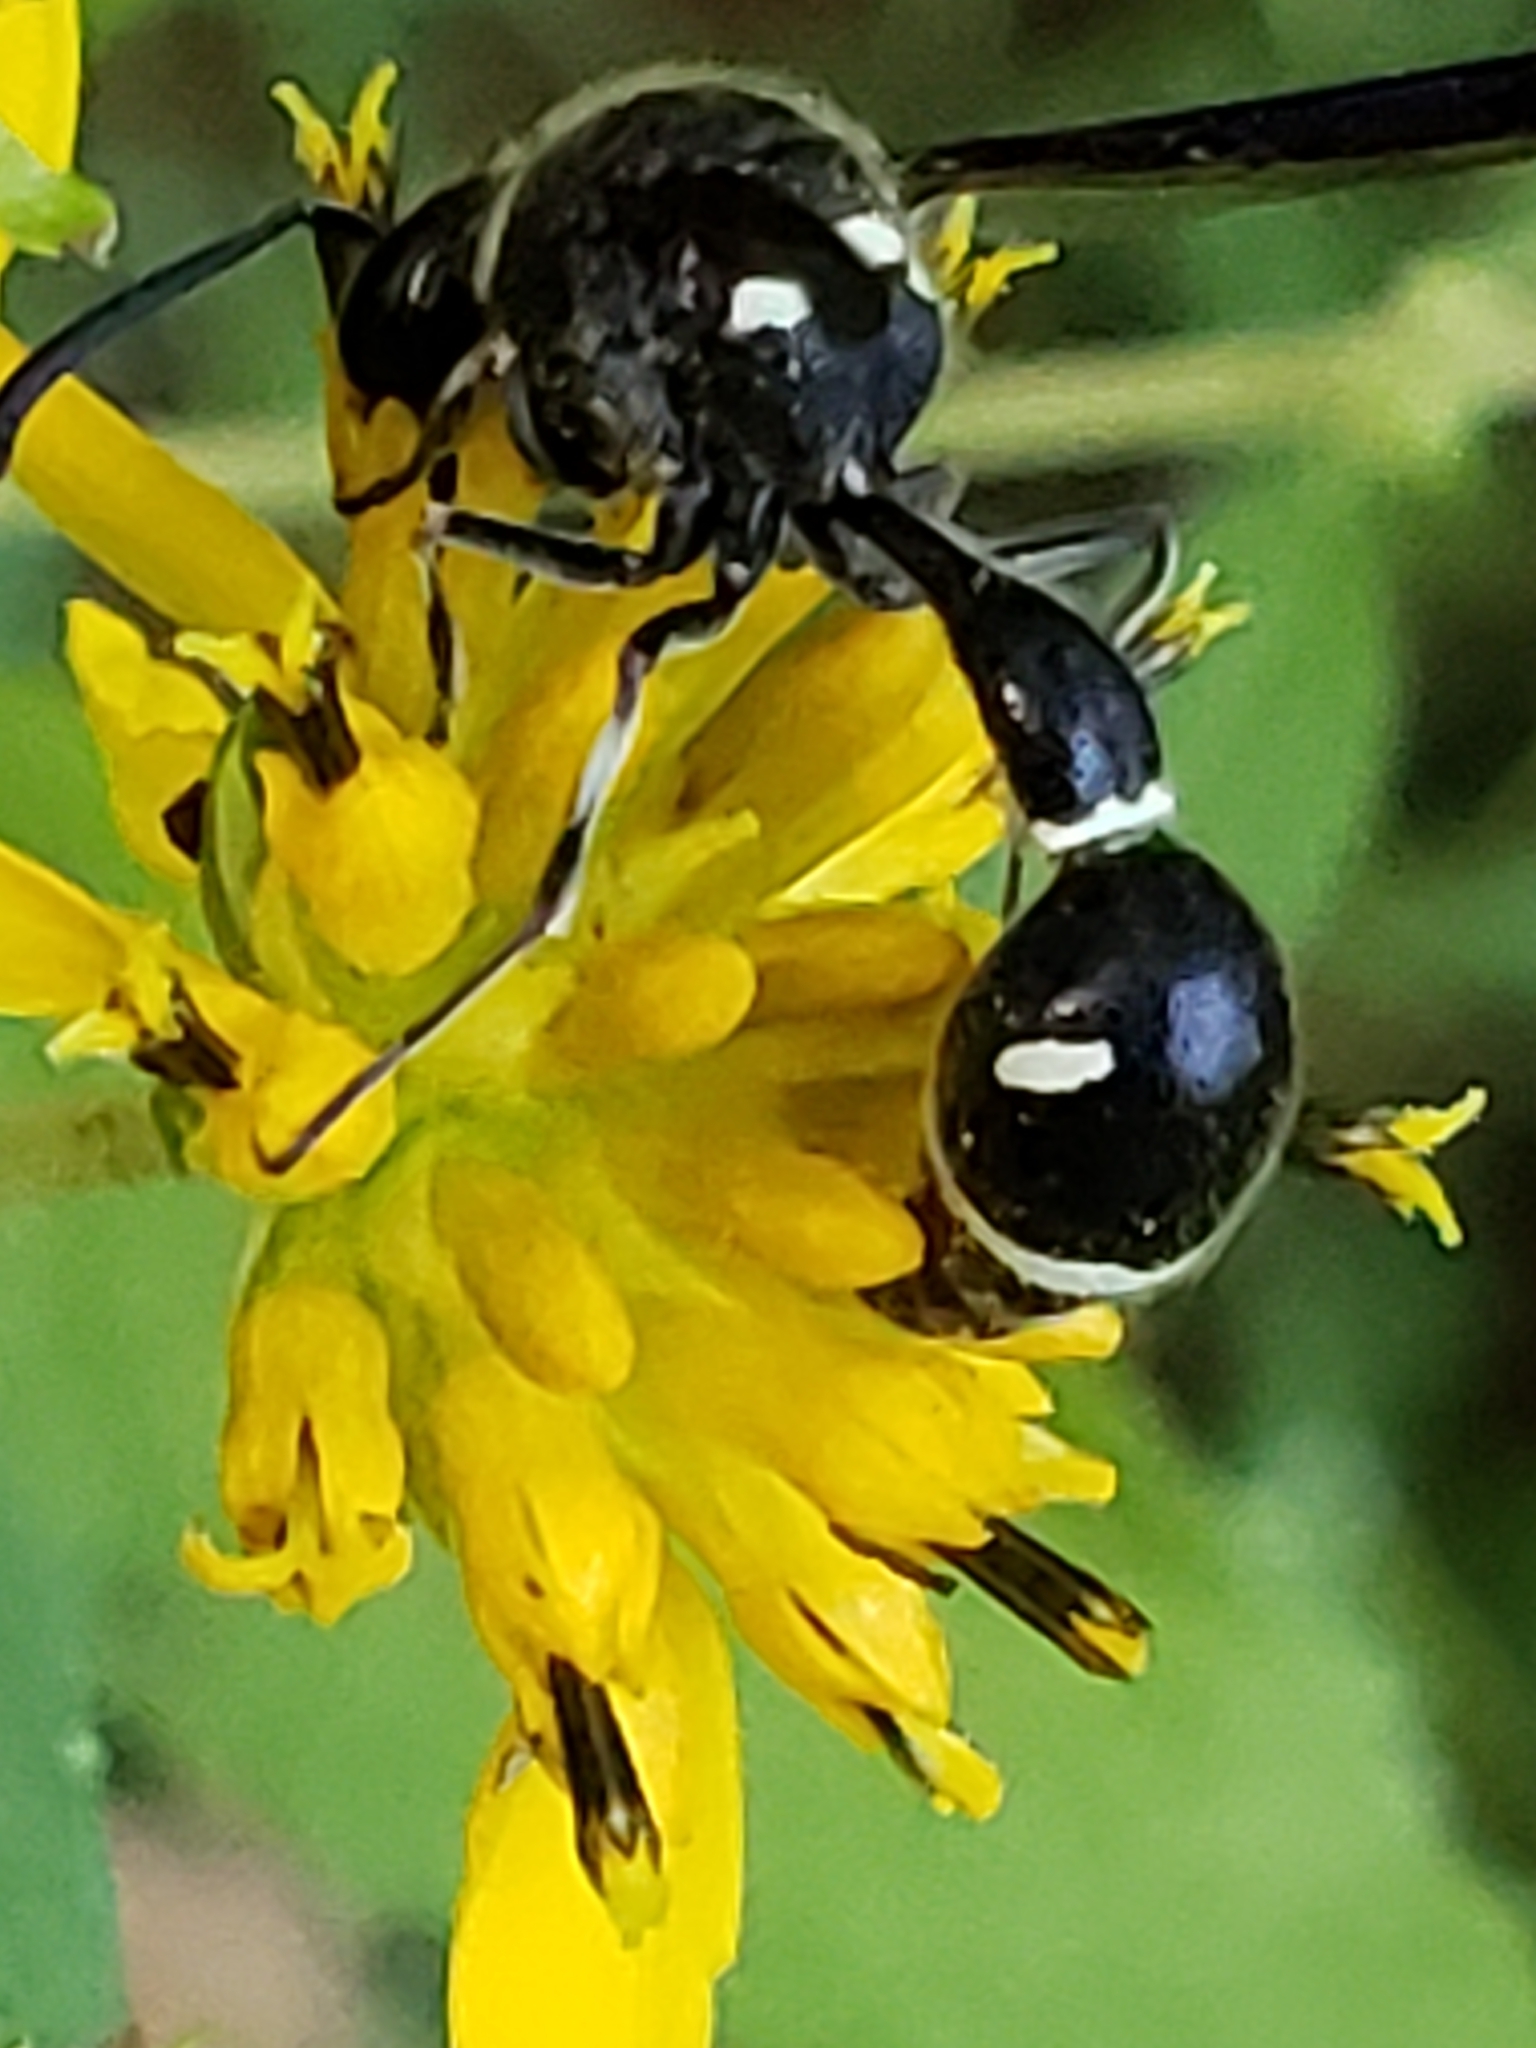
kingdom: Animalia
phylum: Arthropoda
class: Insecta
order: Hymenoptera
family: Vespidae
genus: Eumenes
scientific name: Eumenes fraternus
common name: Fraternal potter wasp
